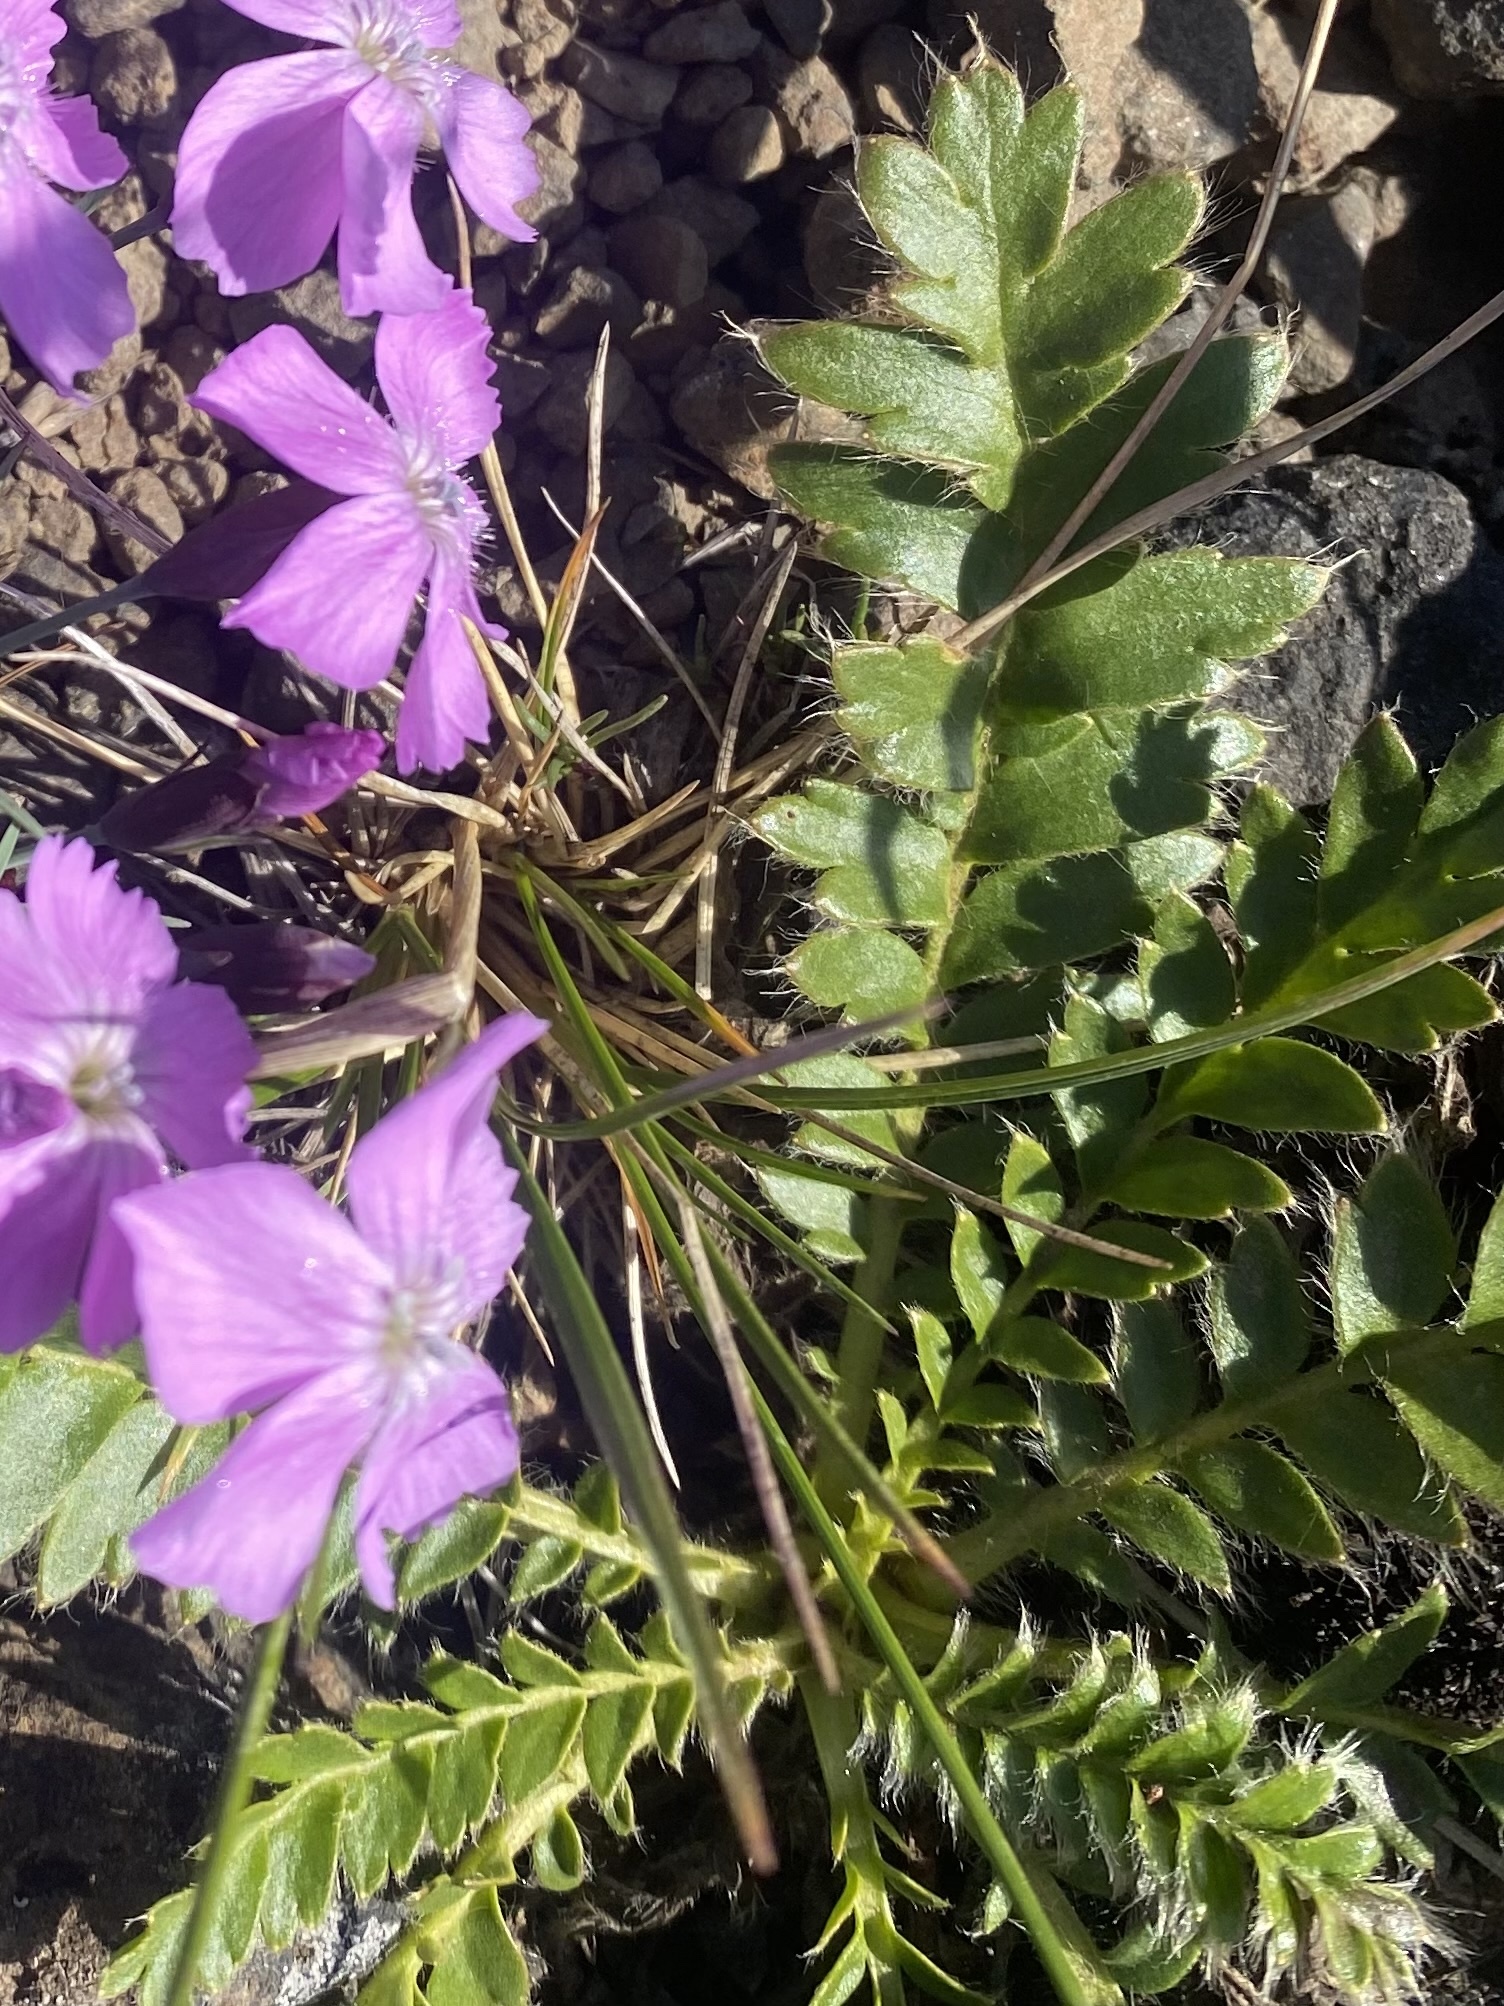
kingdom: Plantae
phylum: Tracheophyta
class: Magnoliopsida
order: Rosales
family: Rosaceae
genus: Geum
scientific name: Geum glaciale
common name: Glacier avens
